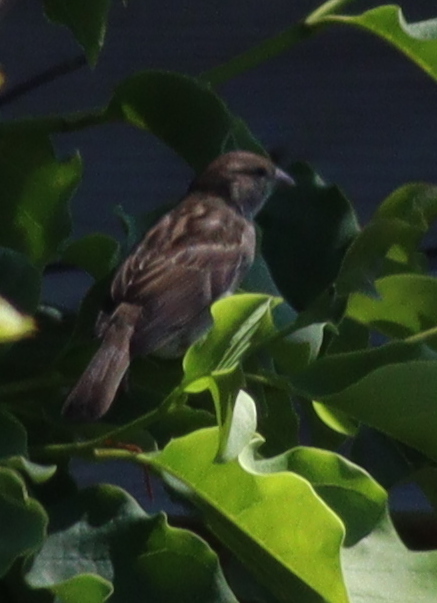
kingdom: Animalia
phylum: Chordata
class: Aves
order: Passeriformes
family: Passeridae
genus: Passer
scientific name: Passer domesticus
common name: House sparrow
